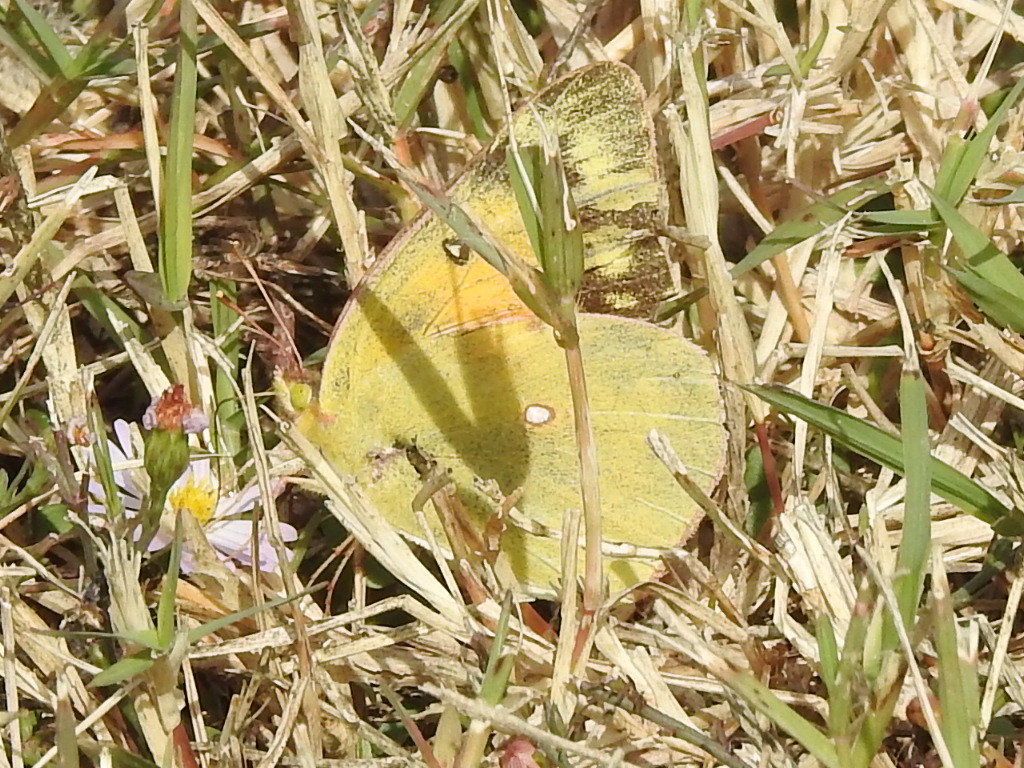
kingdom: Animalia
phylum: Arthropoda
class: Insecta
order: Lepidoptera
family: Pieridae
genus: Colias
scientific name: Colias eurytheme
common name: Alfalfa butterfly
